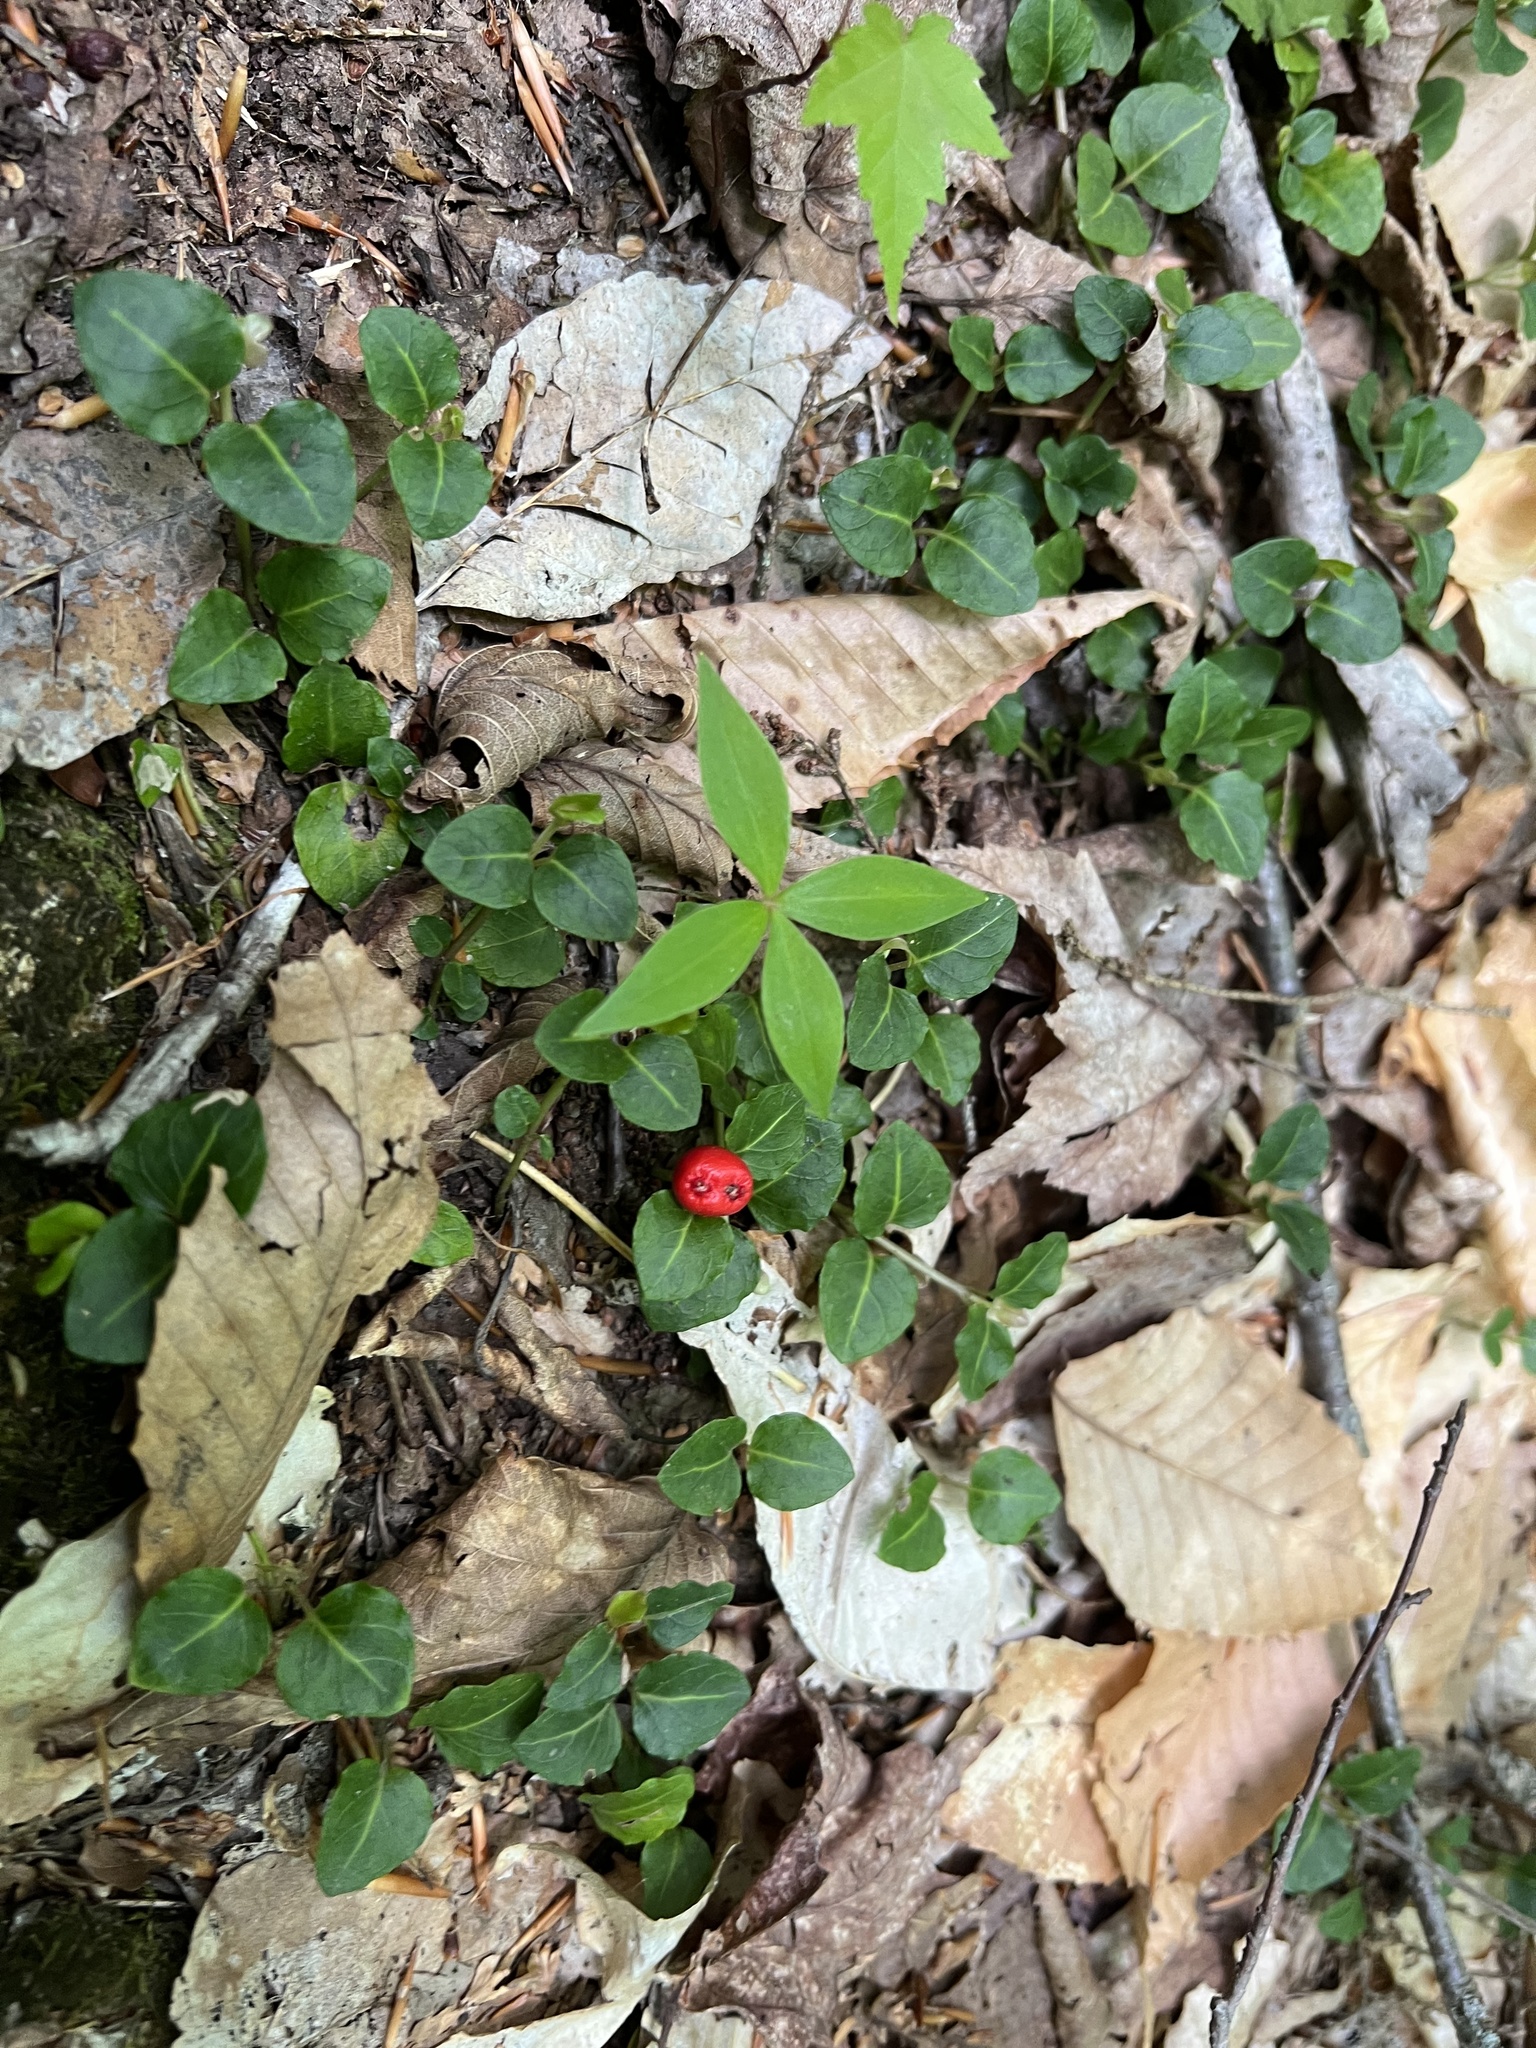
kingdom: Plantae
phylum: Tracheophyta
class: Magnoliopsida
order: Gentianales
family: Rubiaceae
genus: Mitchella
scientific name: Mitchella repens
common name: Partridge-berry
